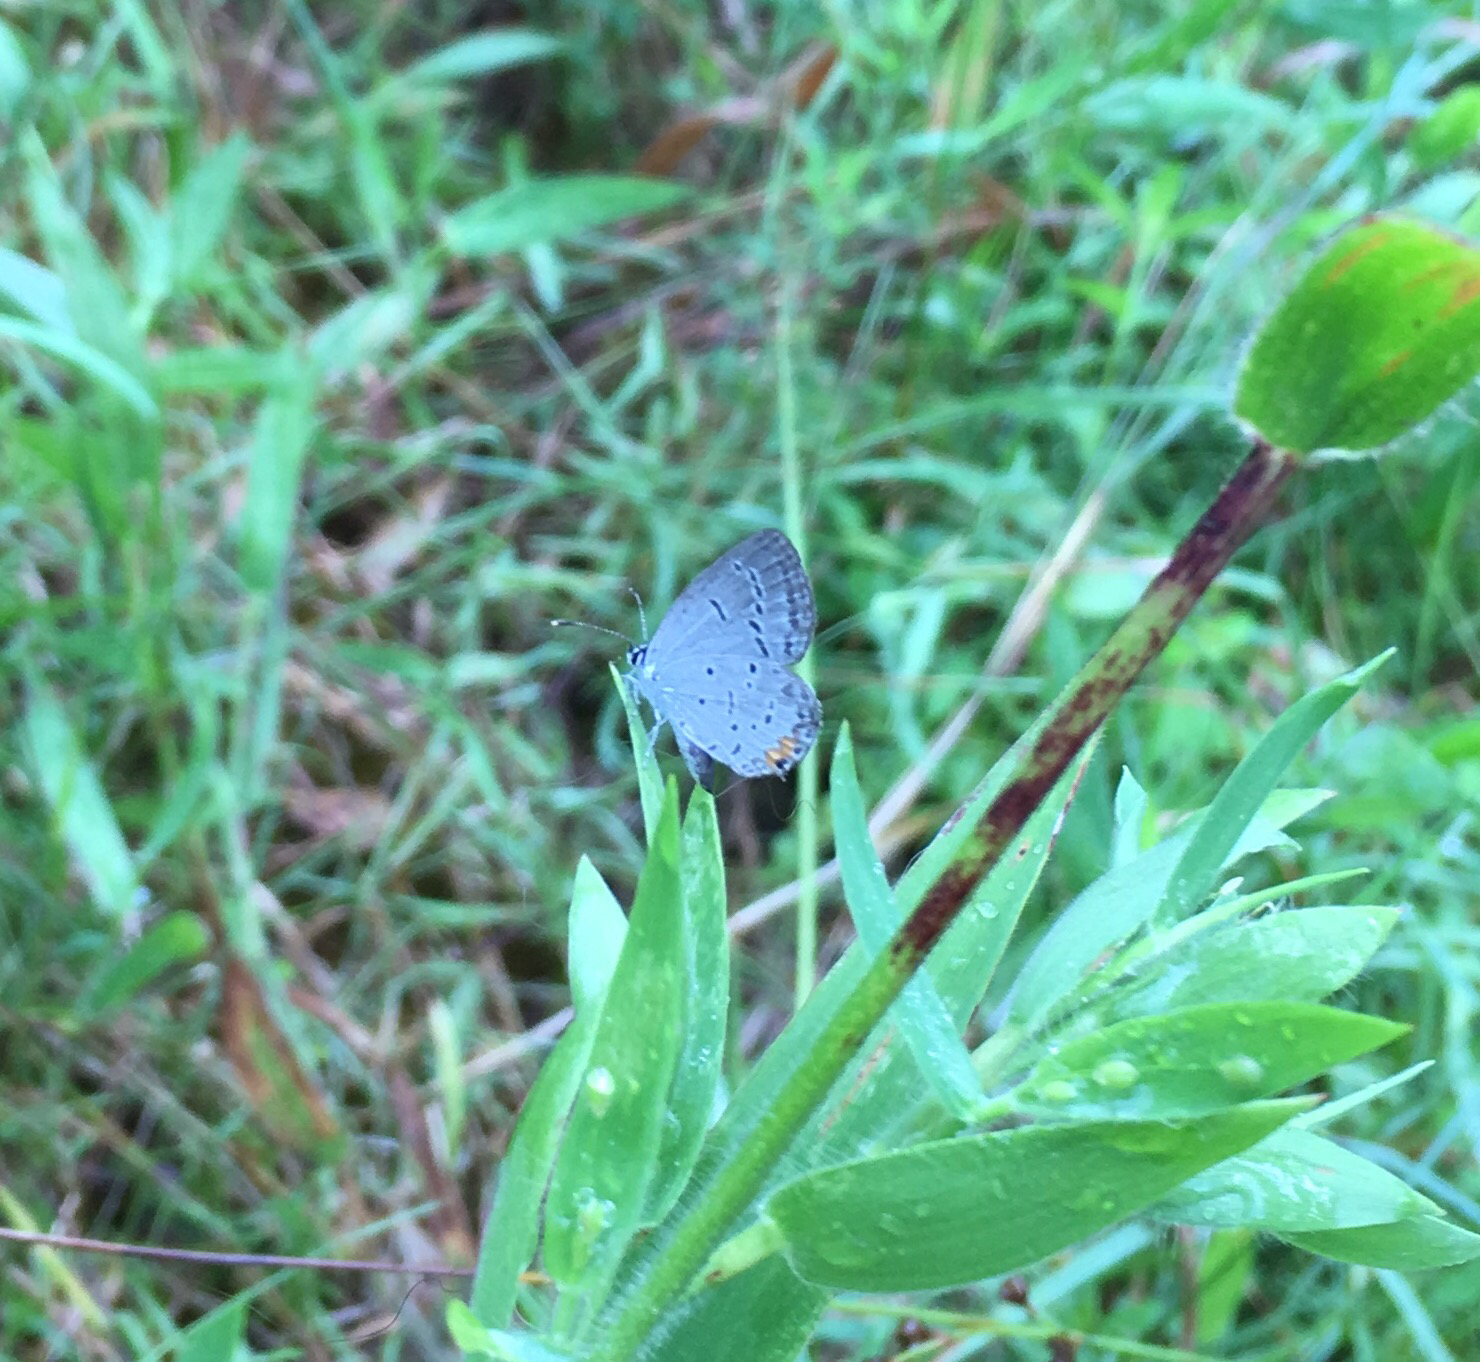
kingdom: Animalia
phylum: Arthropoda
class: Insecta
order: Lepidoptera
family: Lycaenidae
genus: Elkalyce
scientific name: Elkalyce comyntas
